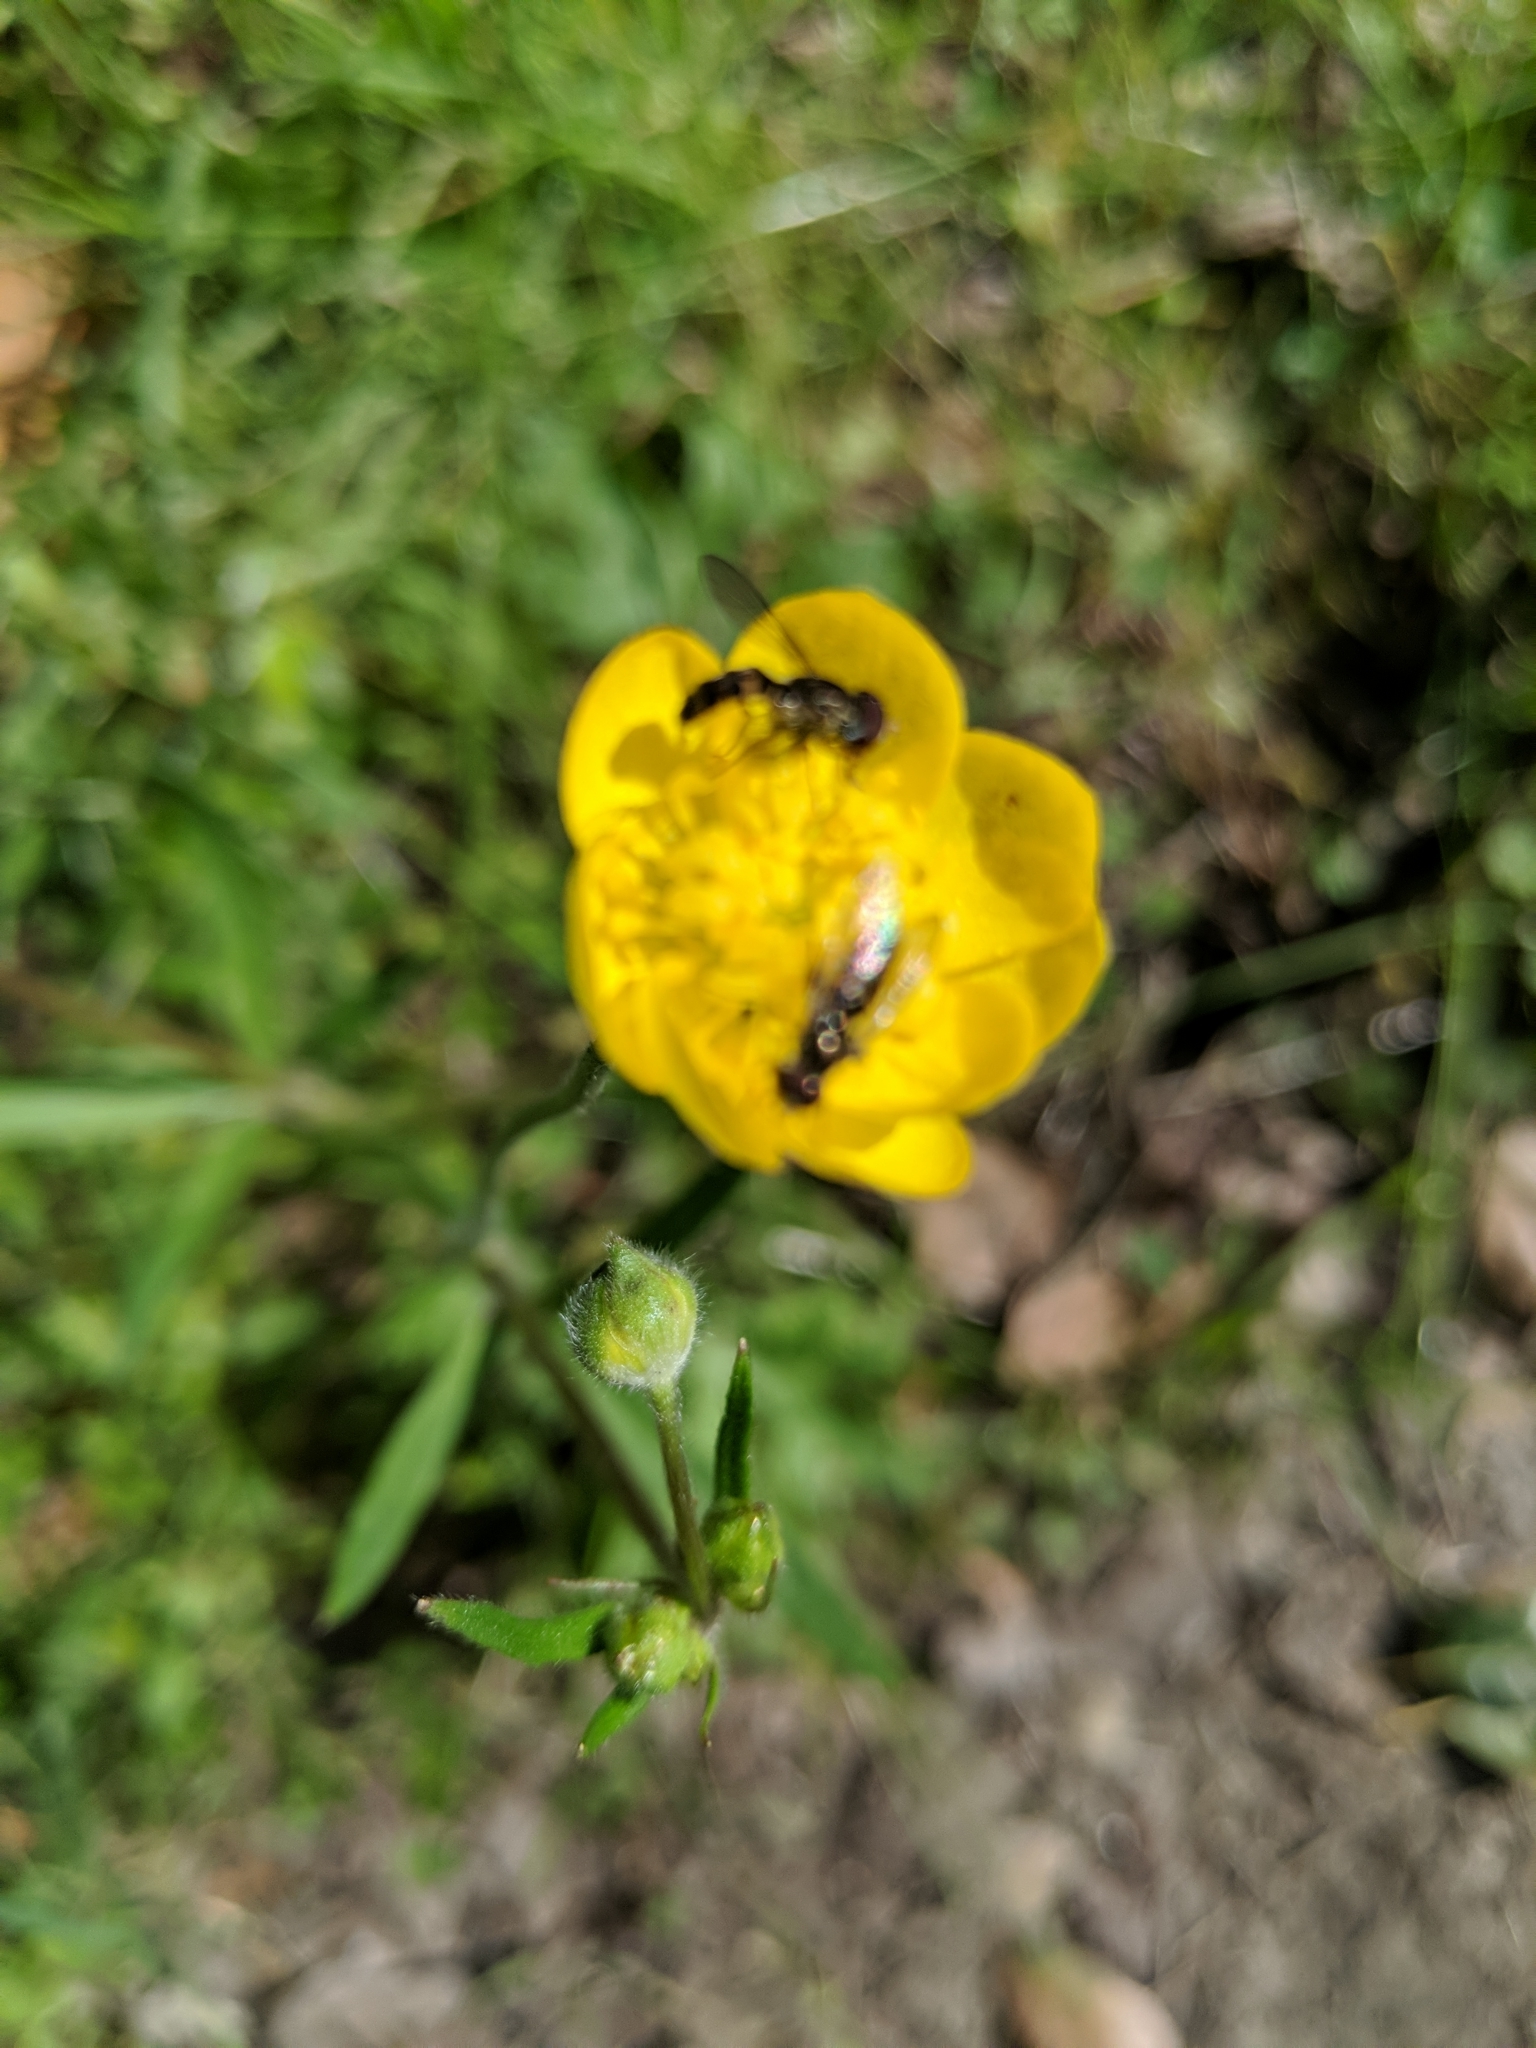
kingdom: Animalia
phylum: Arthropoda
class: Insecta
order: Diptera
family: Syrphidae
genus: Toxomerus
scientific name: Toxomerus occidentalis
